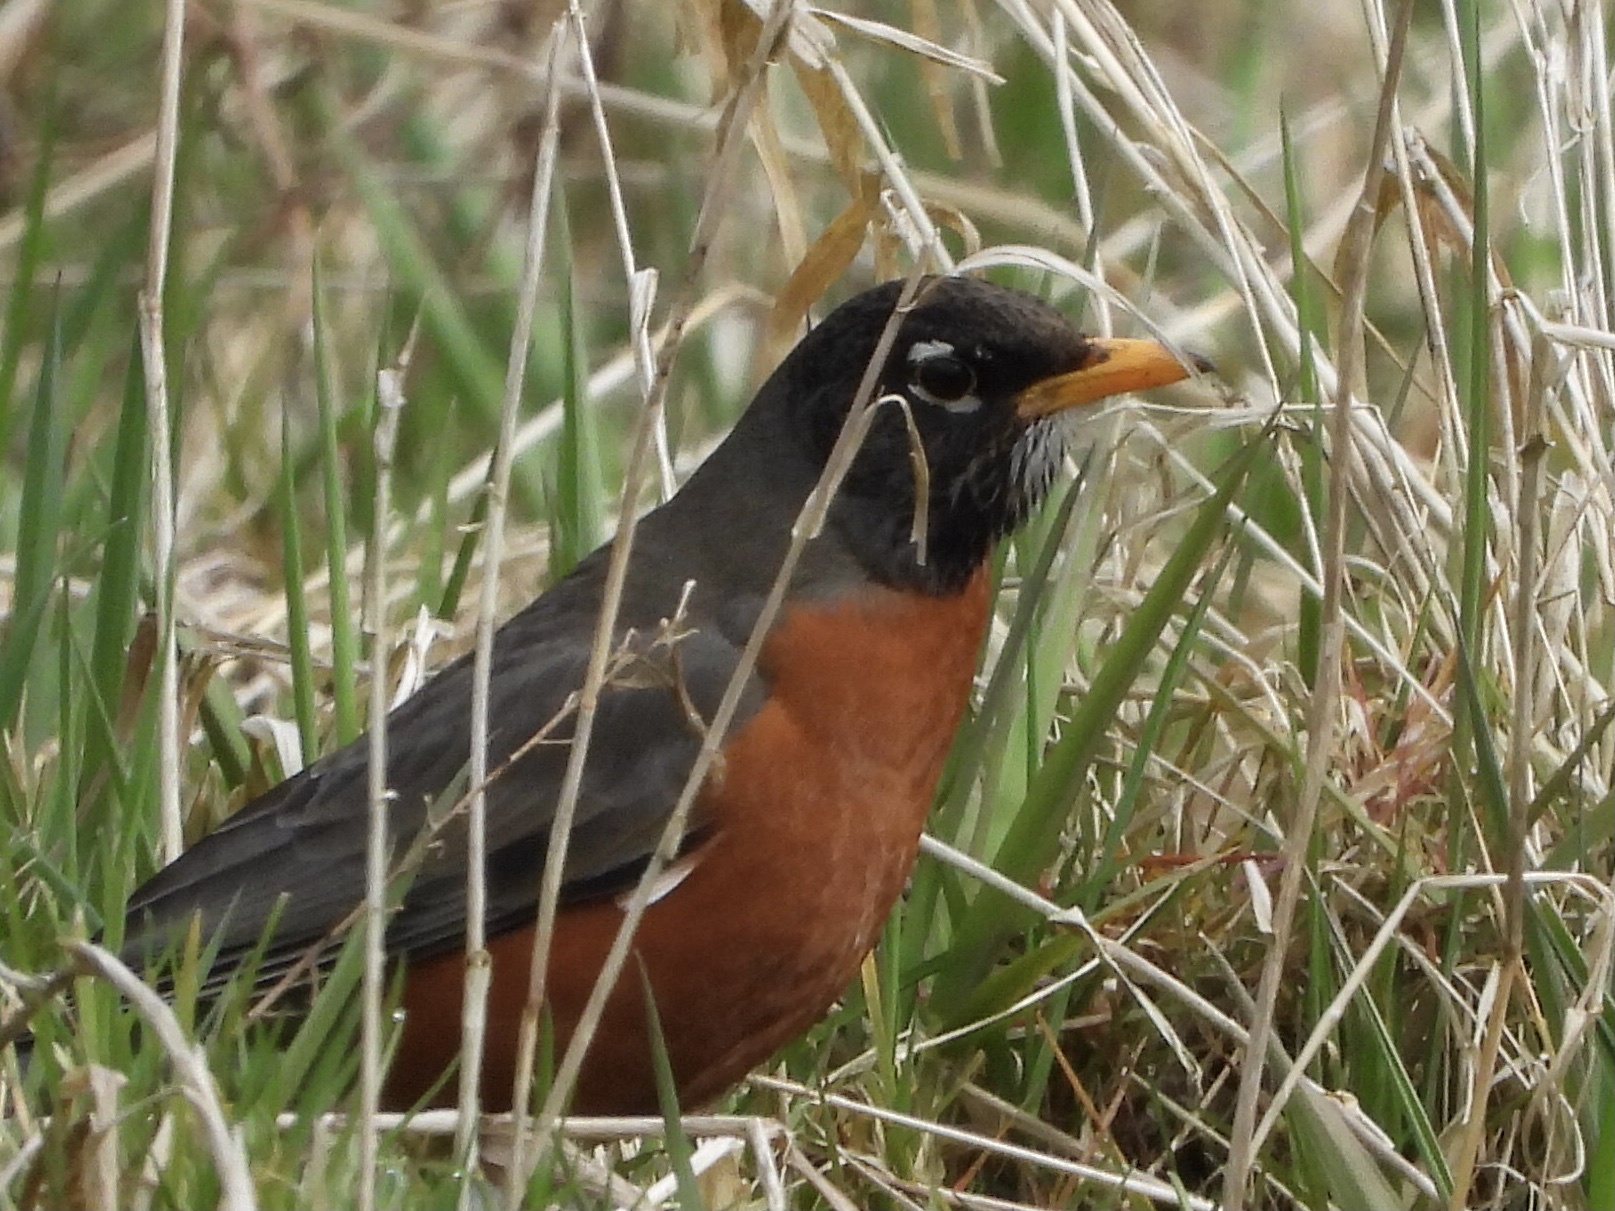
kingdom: Animalia
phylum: Chordata
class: Aves
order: Passeriformes
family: Turdidae
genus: Turdus
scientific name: Turdus migratorius
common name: American robin
